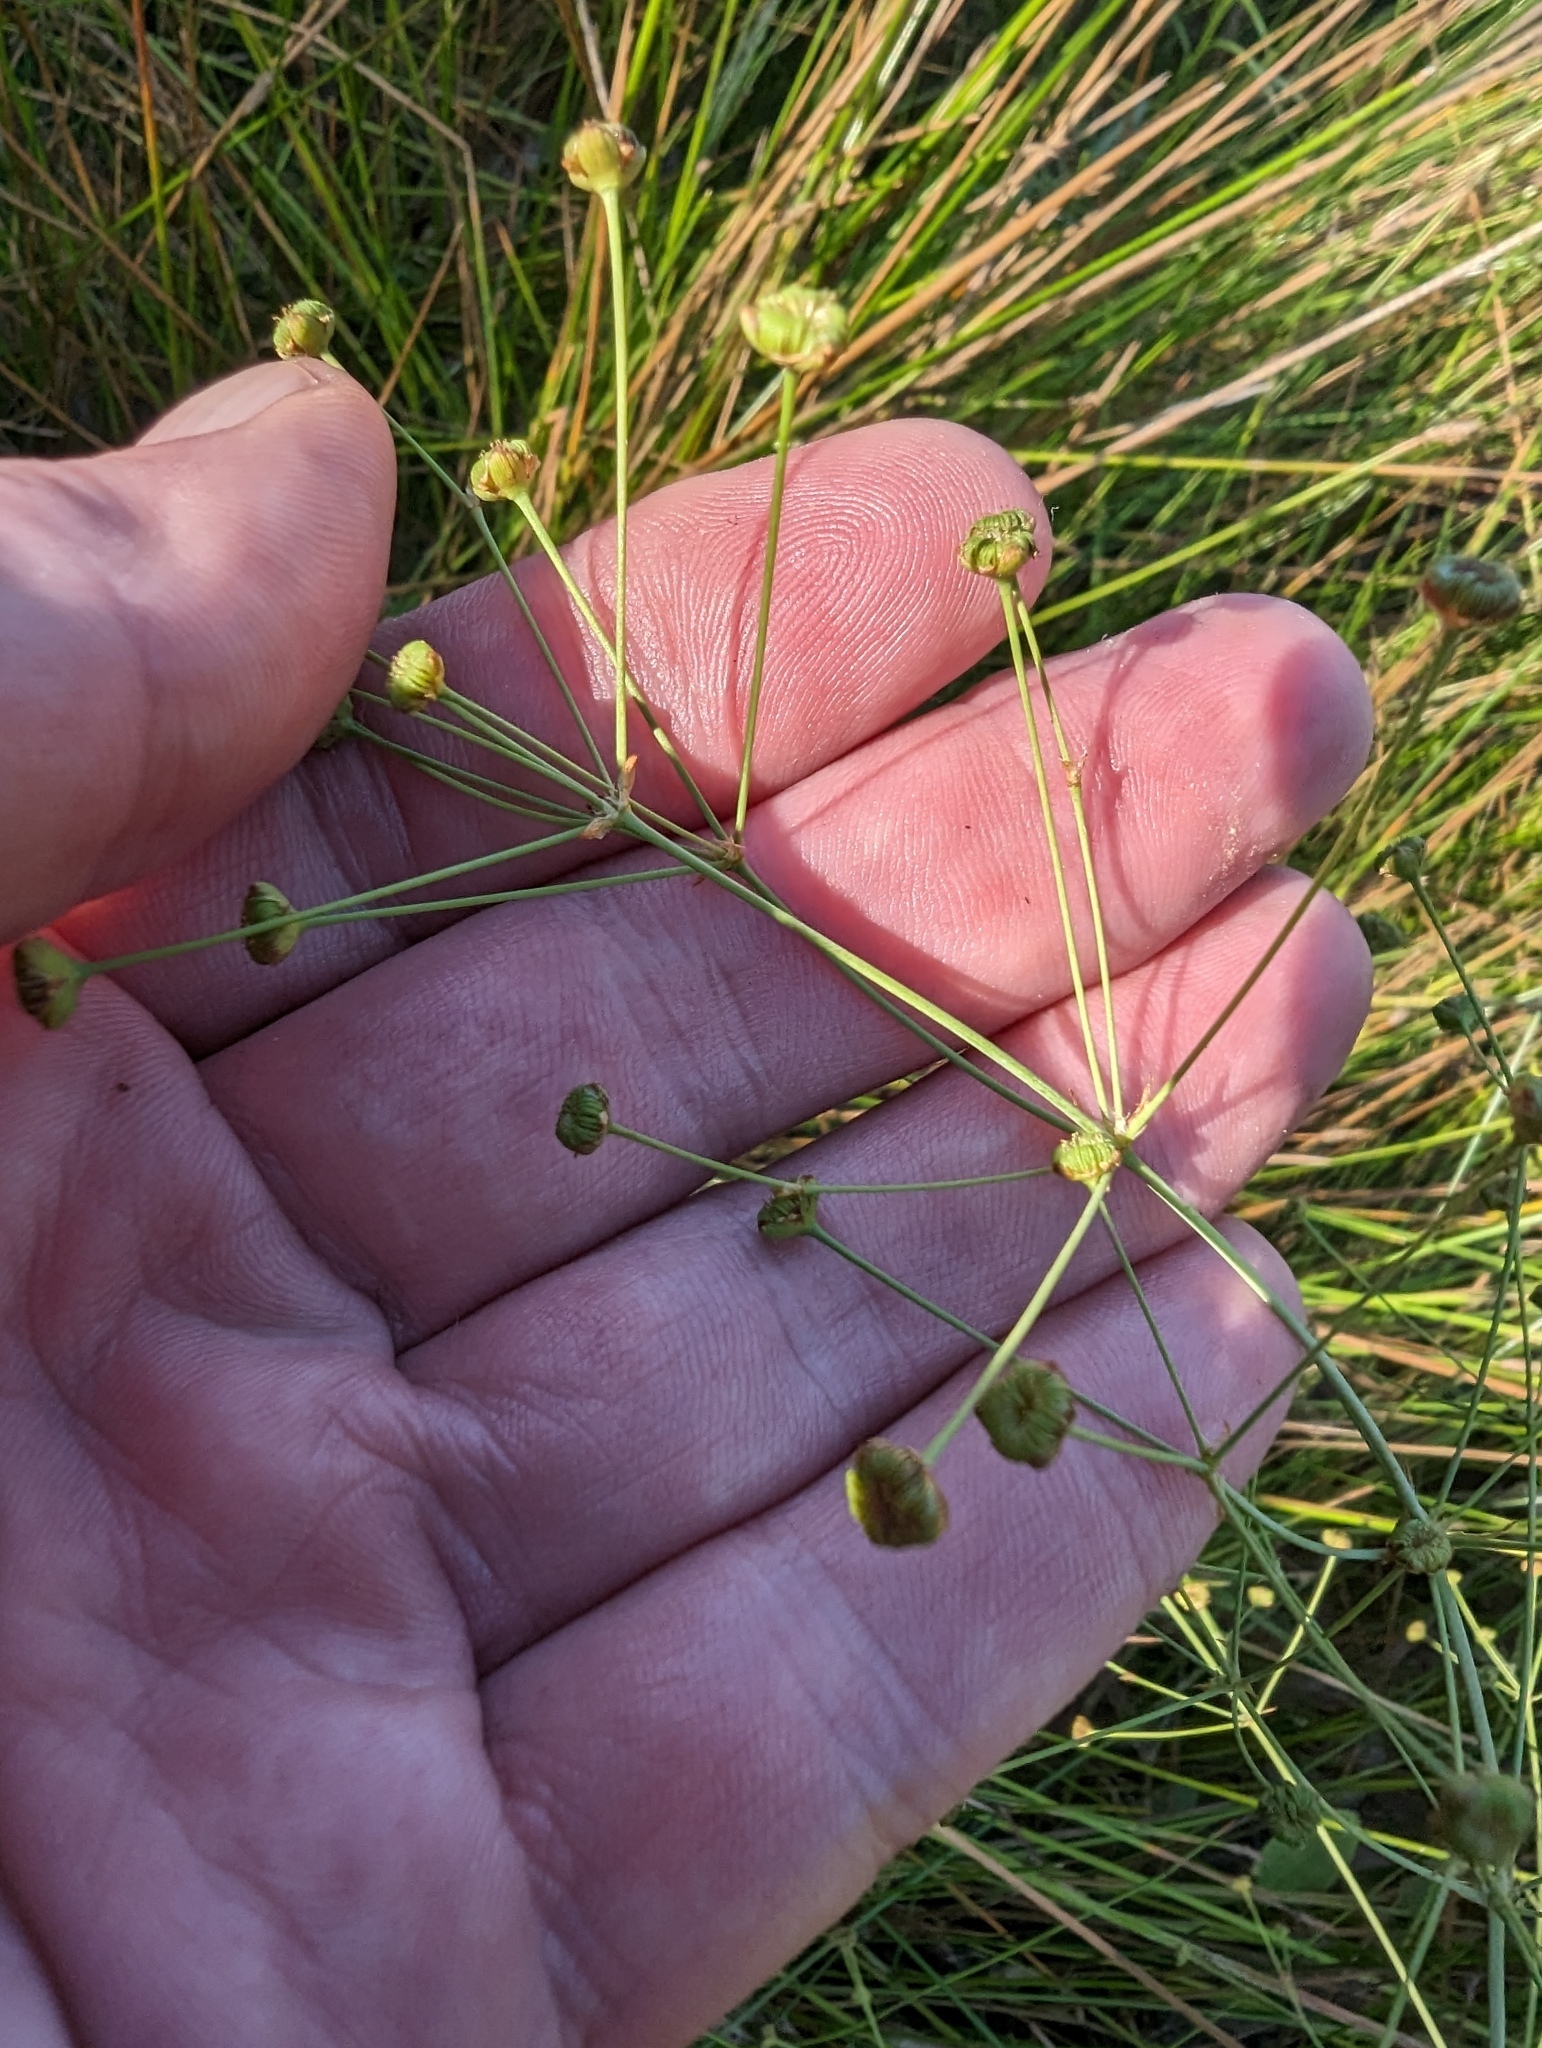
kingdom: Plantae
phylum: Tracheophyta
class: Liliopsida
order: Alismatales
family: Alismataceae
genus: Alisma
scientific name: Alisma triviale
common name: Northern water-plantain
